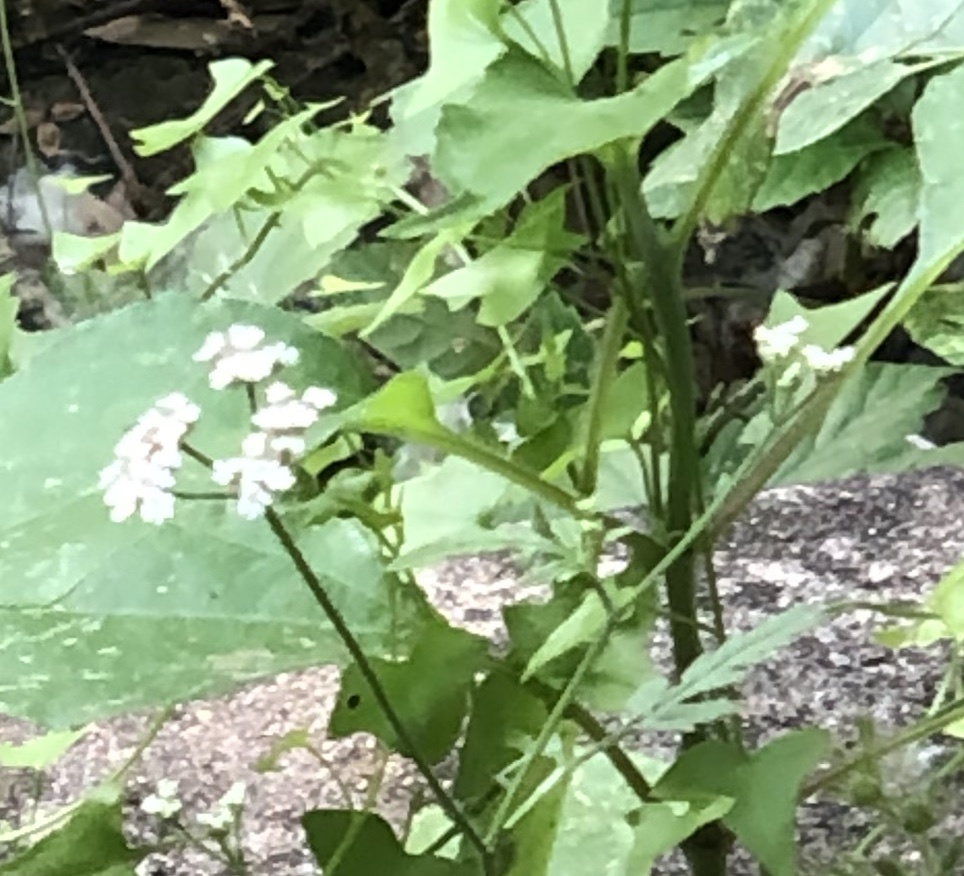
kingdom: Plantae
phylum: Tracheophyta
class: Magnoliopsida
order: Apiales
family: Apiaceae
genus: Torilis
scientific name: Torilis arvensis
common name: Spreading hedge-parsley
